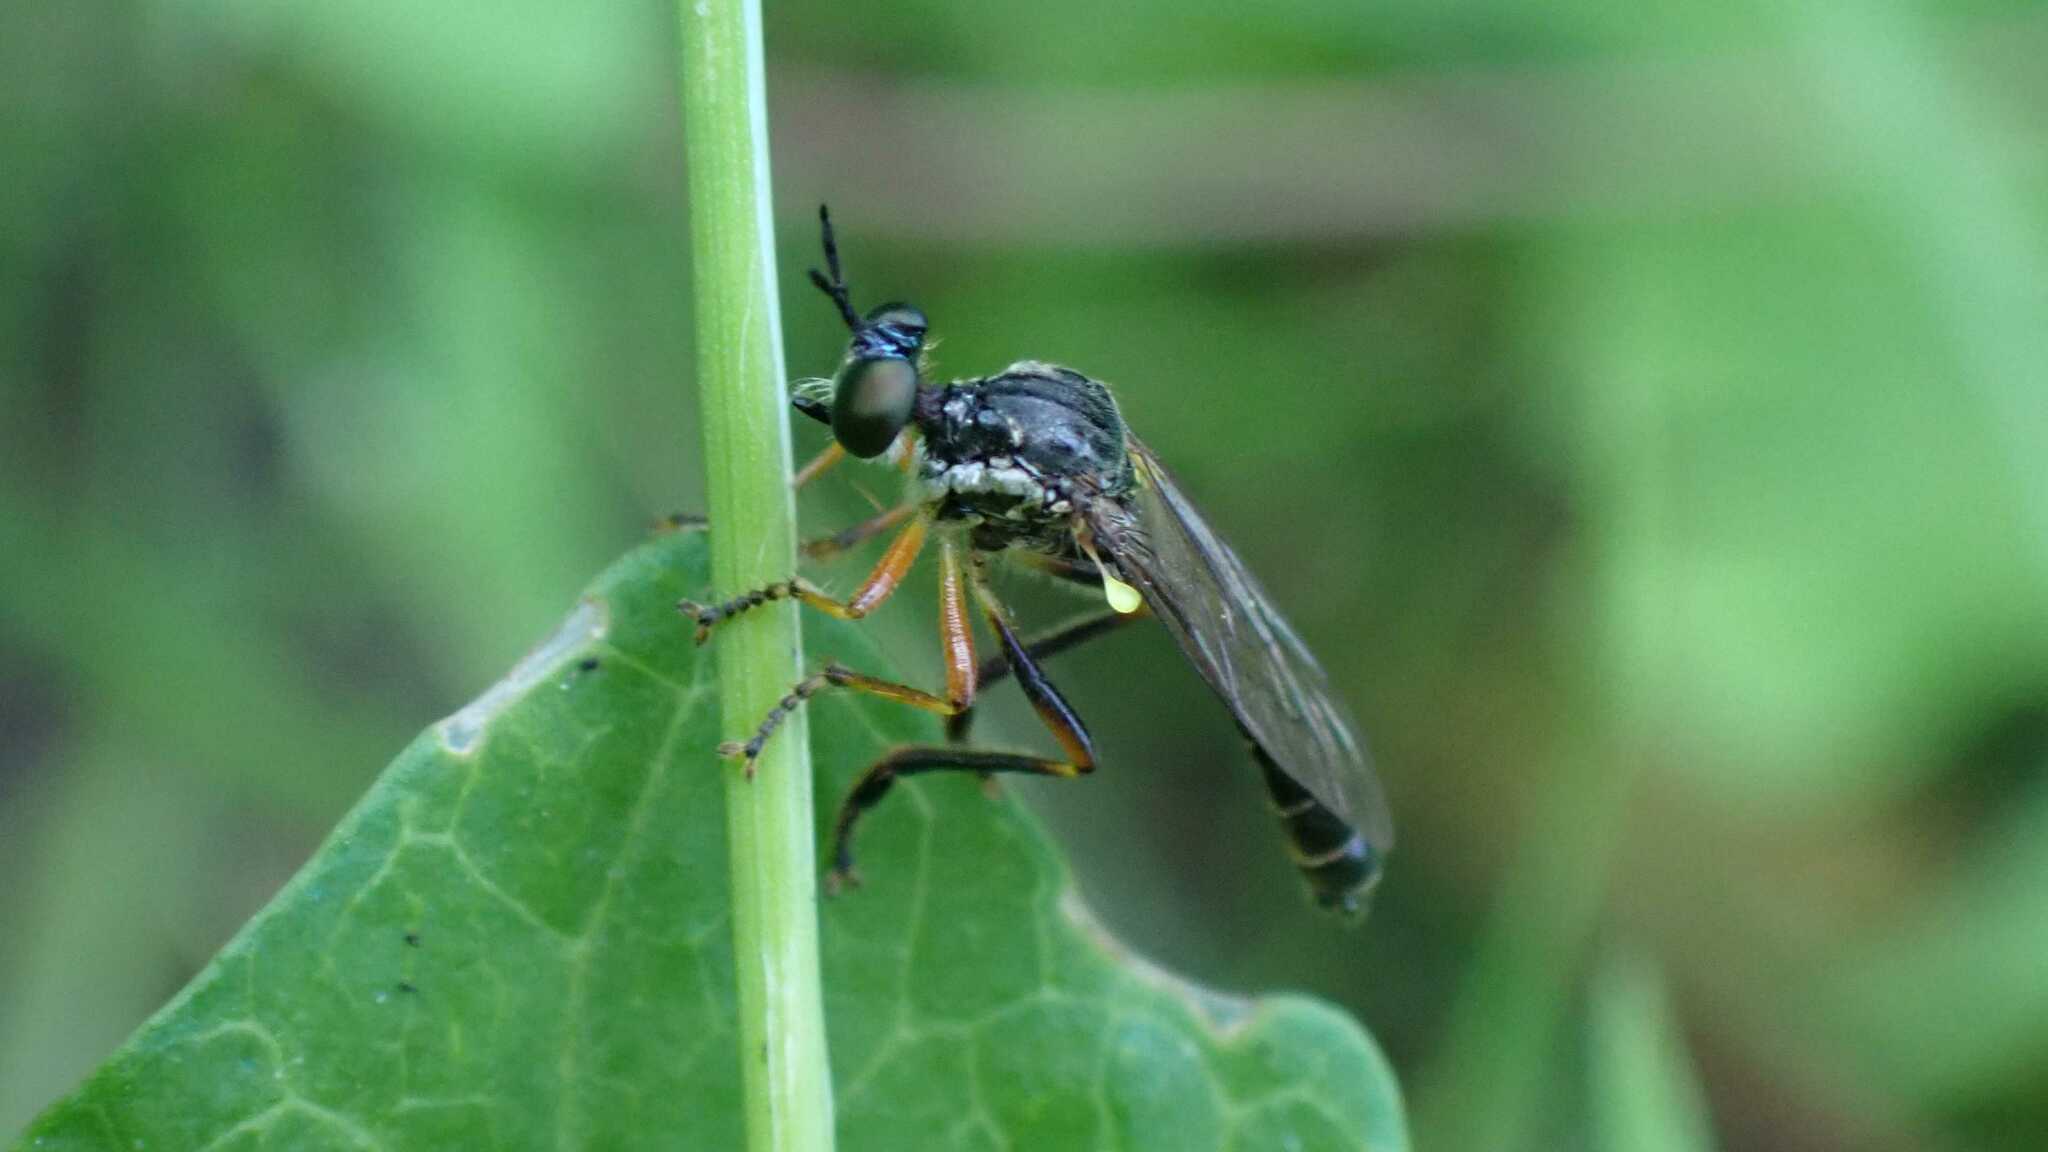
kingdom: Animalia
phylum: Arthropoda
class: Insecta
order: Diptera
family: Asilidae
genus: Dioctria
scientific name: Dioctria hyalipennis
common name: Stripe-legged robberfly
